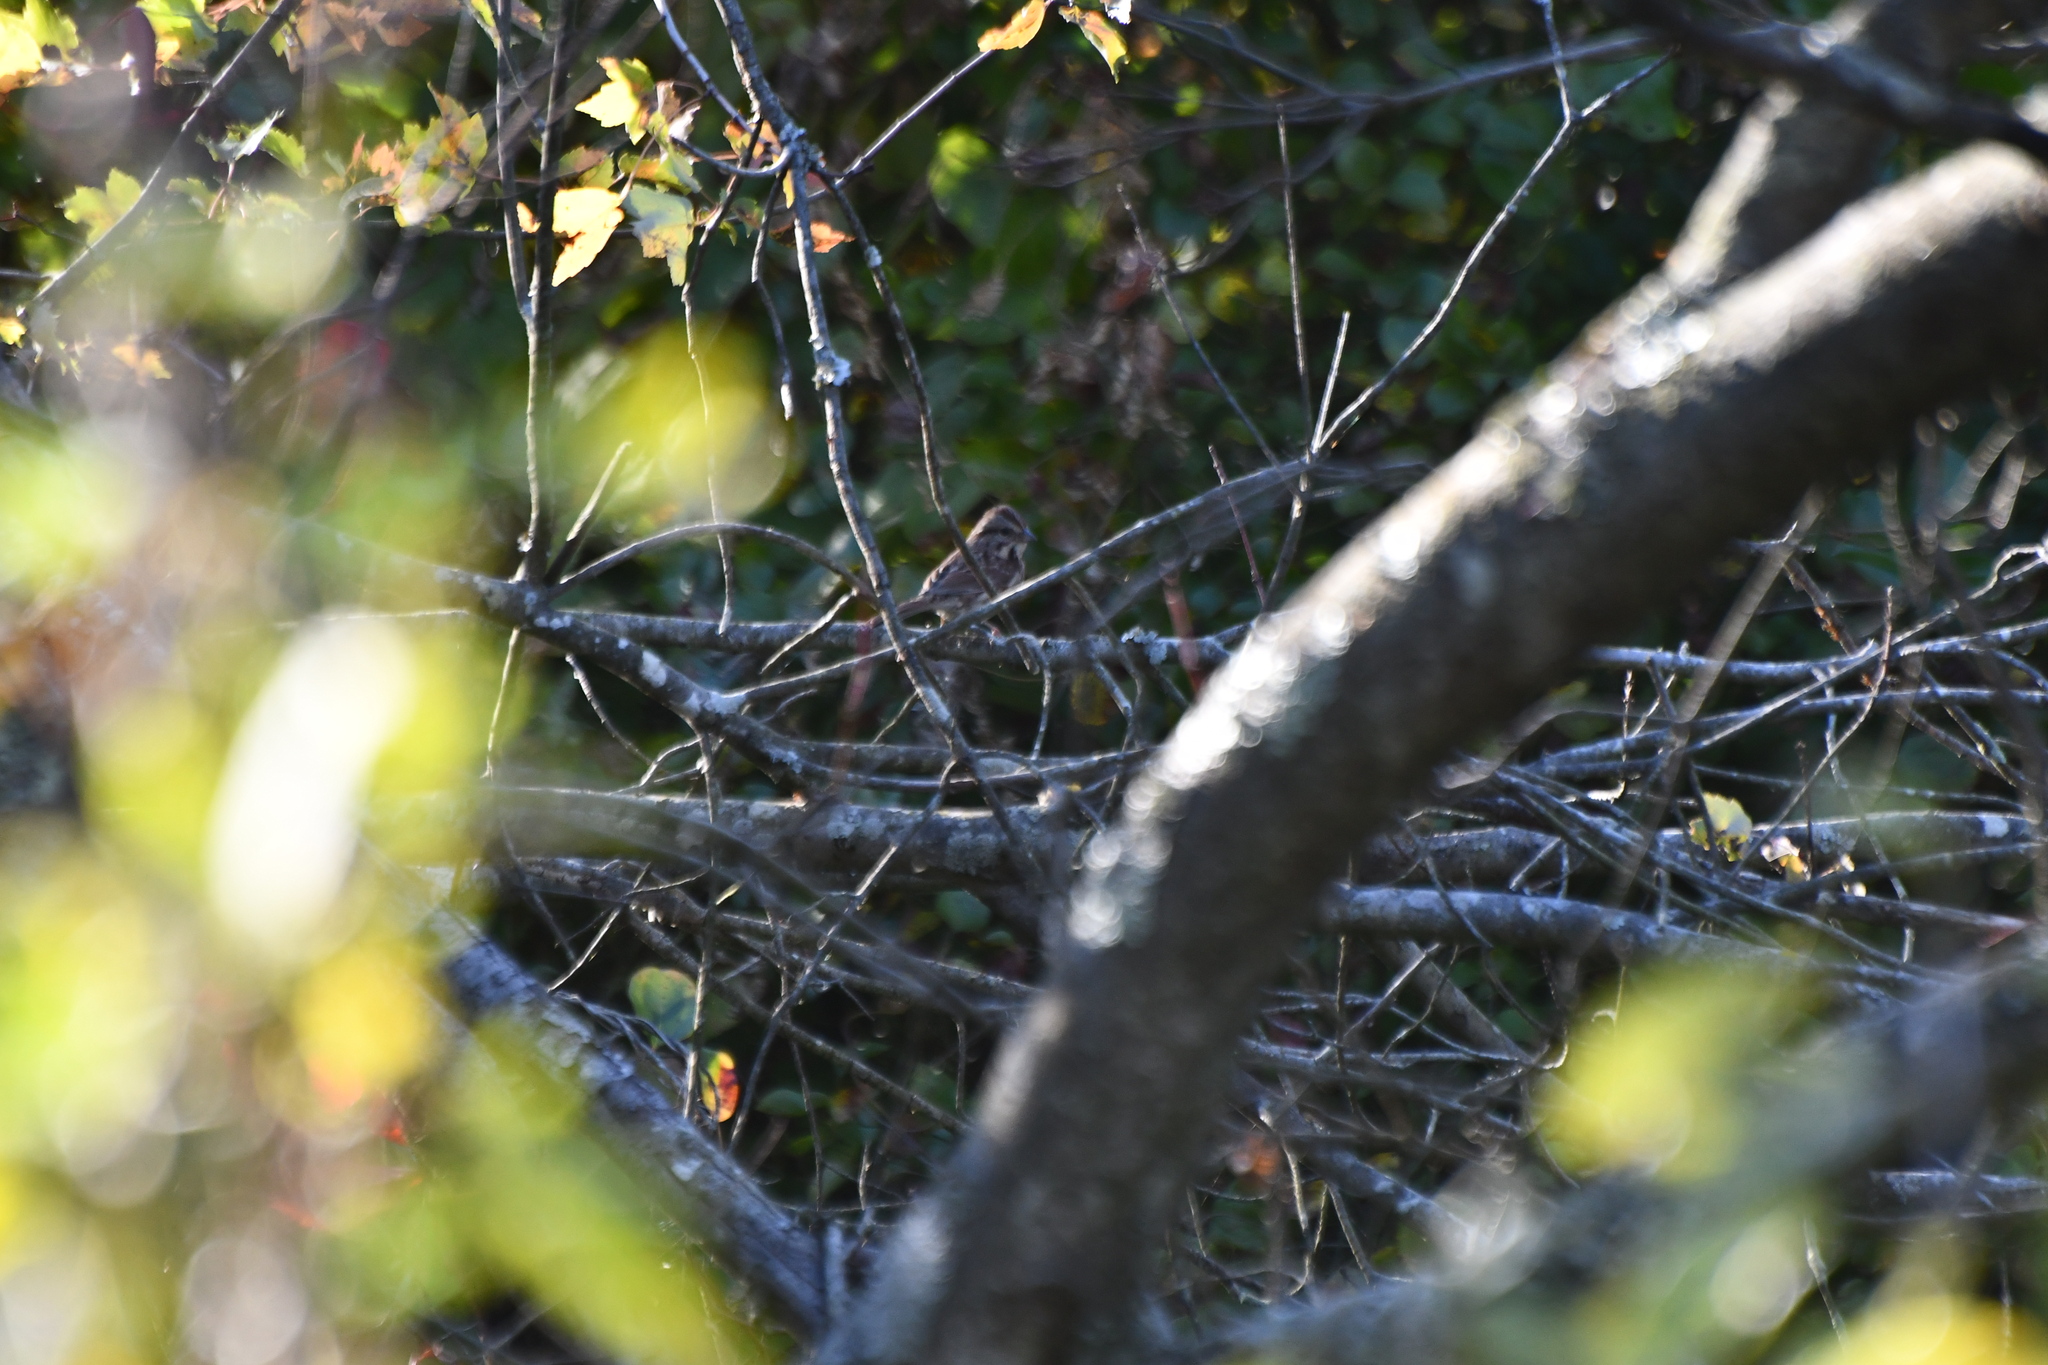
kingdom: Animalia
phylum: Chordata
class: Aves
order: Passeriformes
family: Passerellidae
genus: Melospiza
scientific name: Melospiza melodia
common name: Song sparrow
